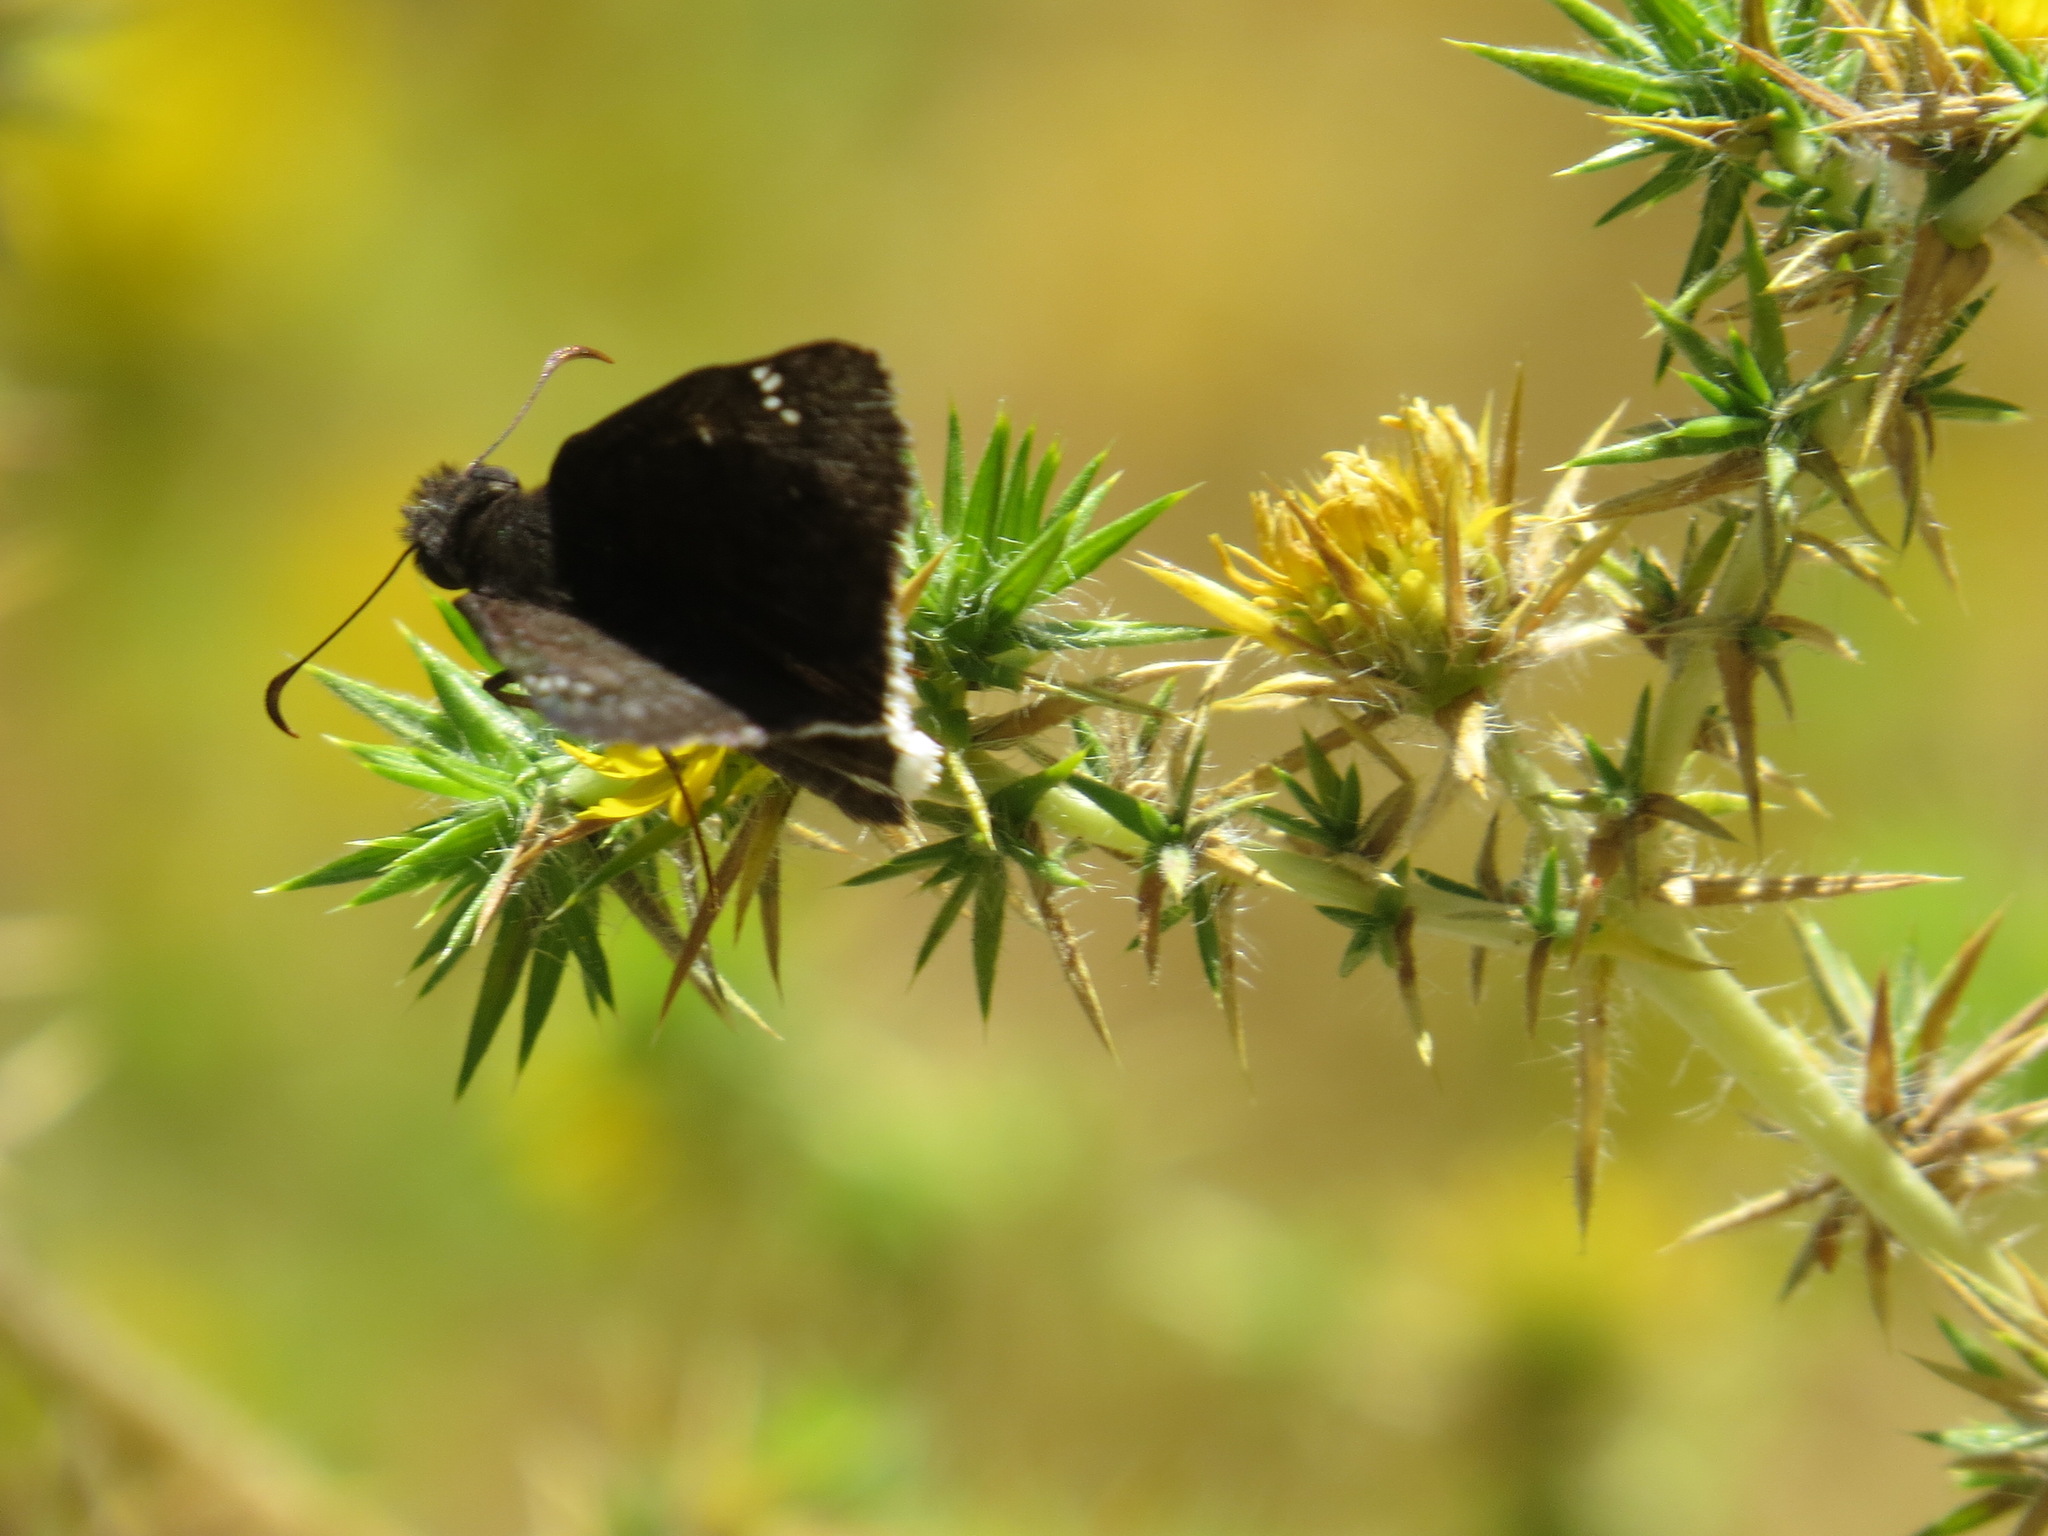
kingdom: Animalia
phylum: Arthropoda
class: Insecta
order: Lepidoptera
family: Hesperiidae
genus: Erynnis
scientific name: Erynnis tristis
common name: Mournful duskywing
